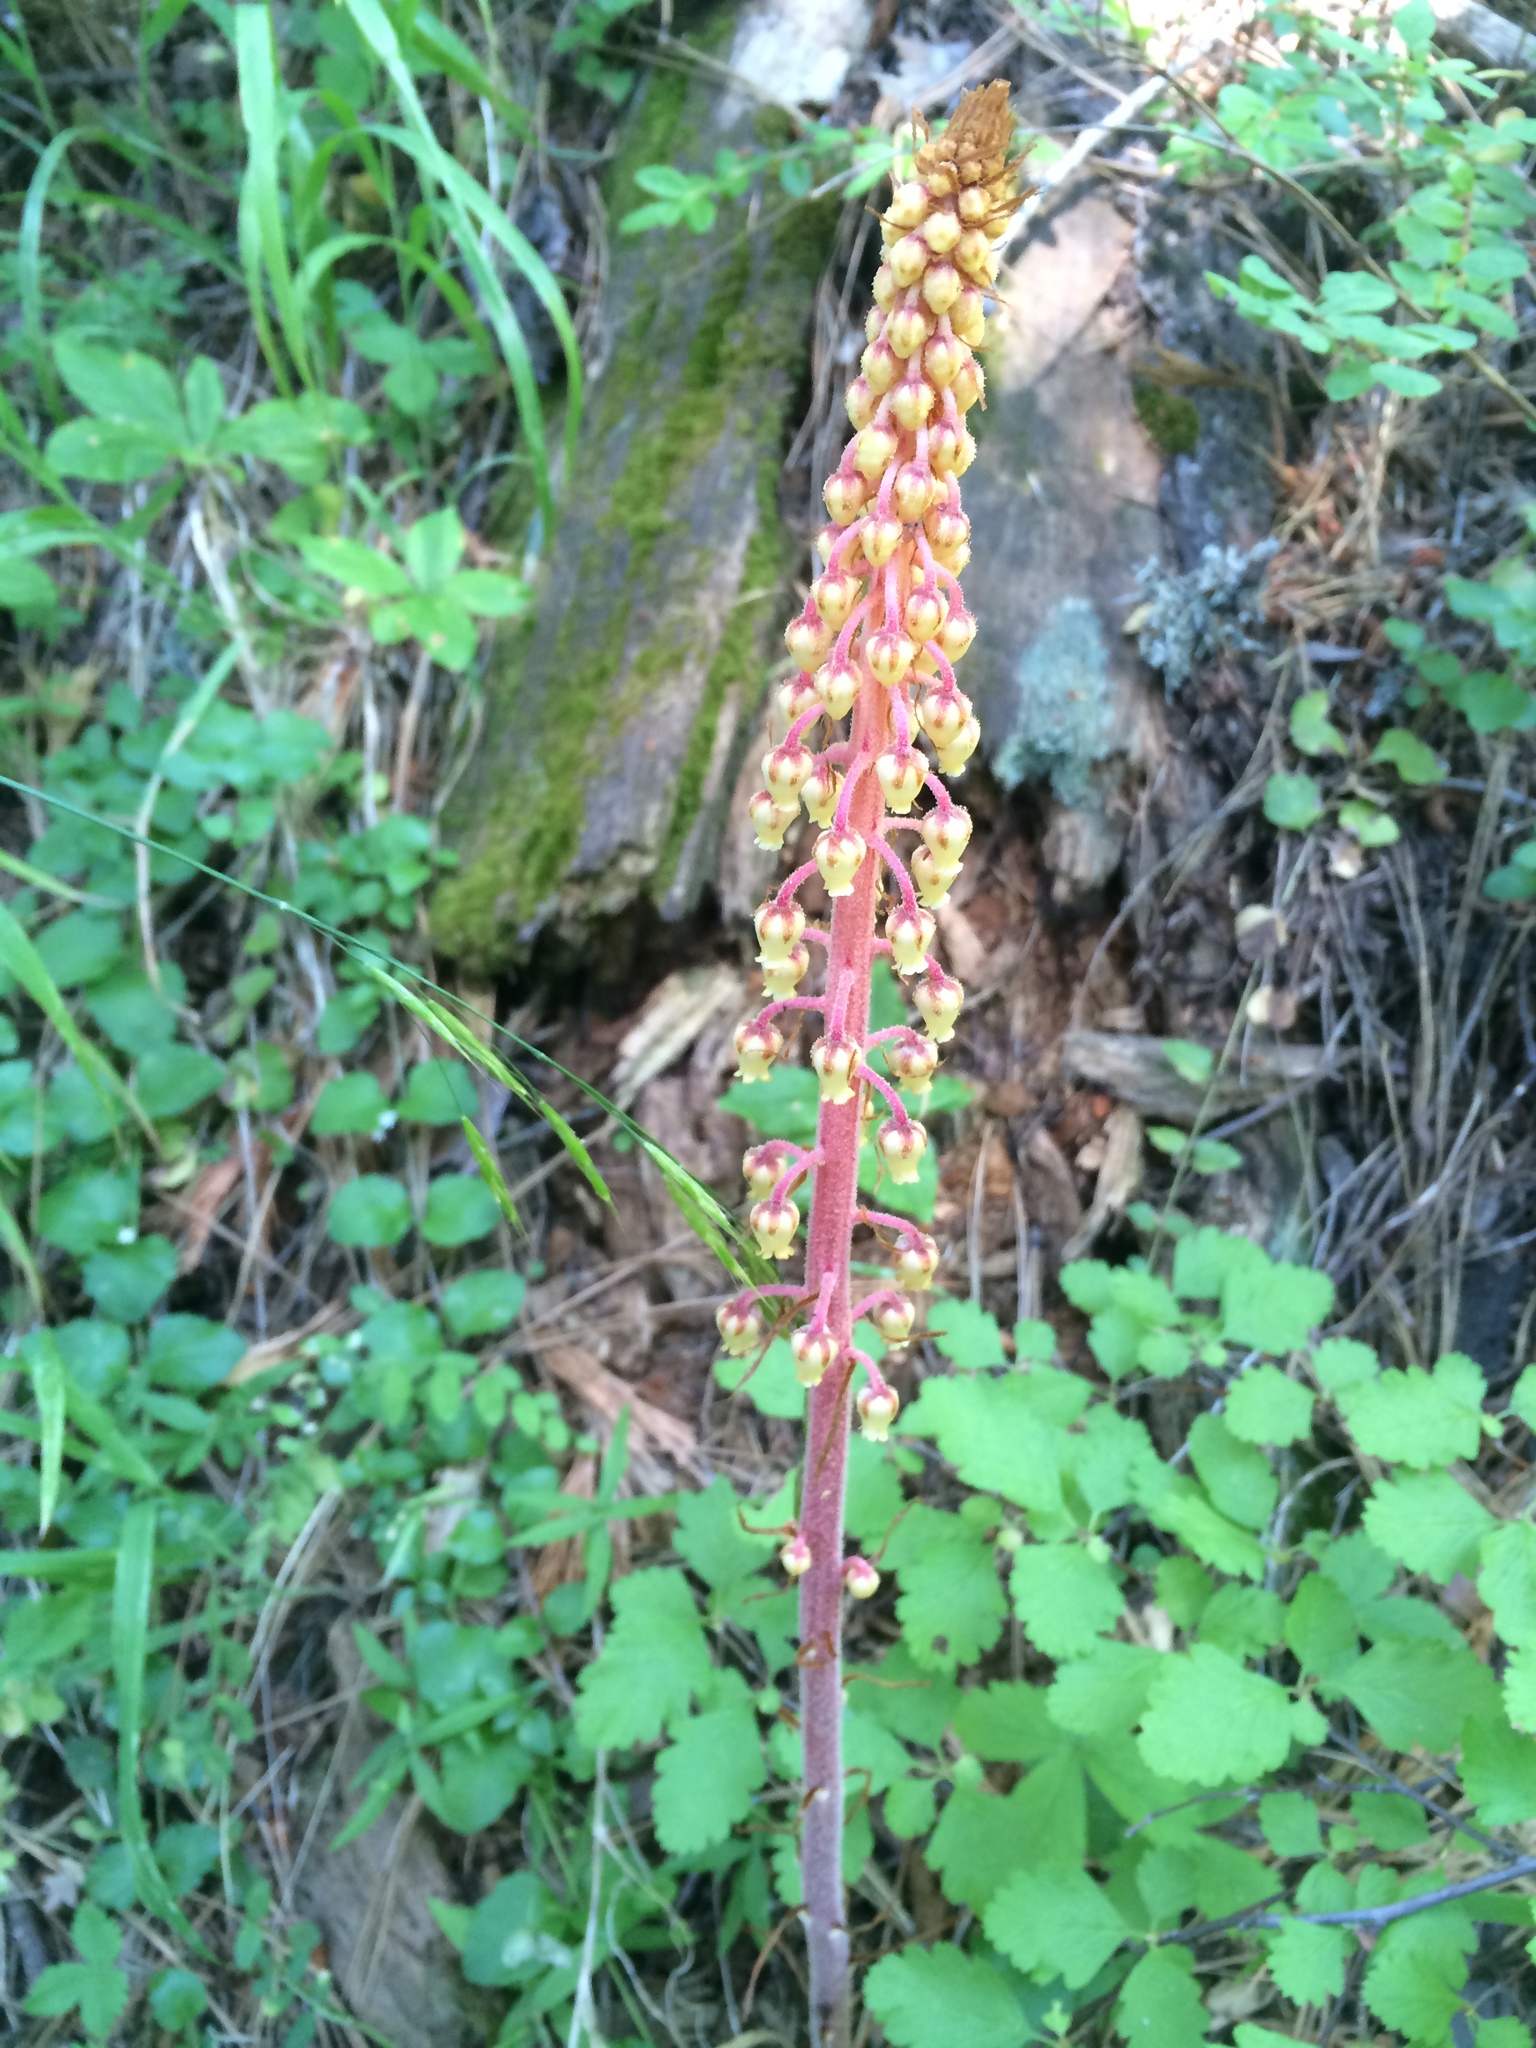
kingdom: Plantae
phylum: Tracheophyta
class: Magnoliopsida
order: Ericales
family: Ericaceae
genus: Pterospora
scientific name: Pterospora andromedea
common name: Giant bird's-nest
